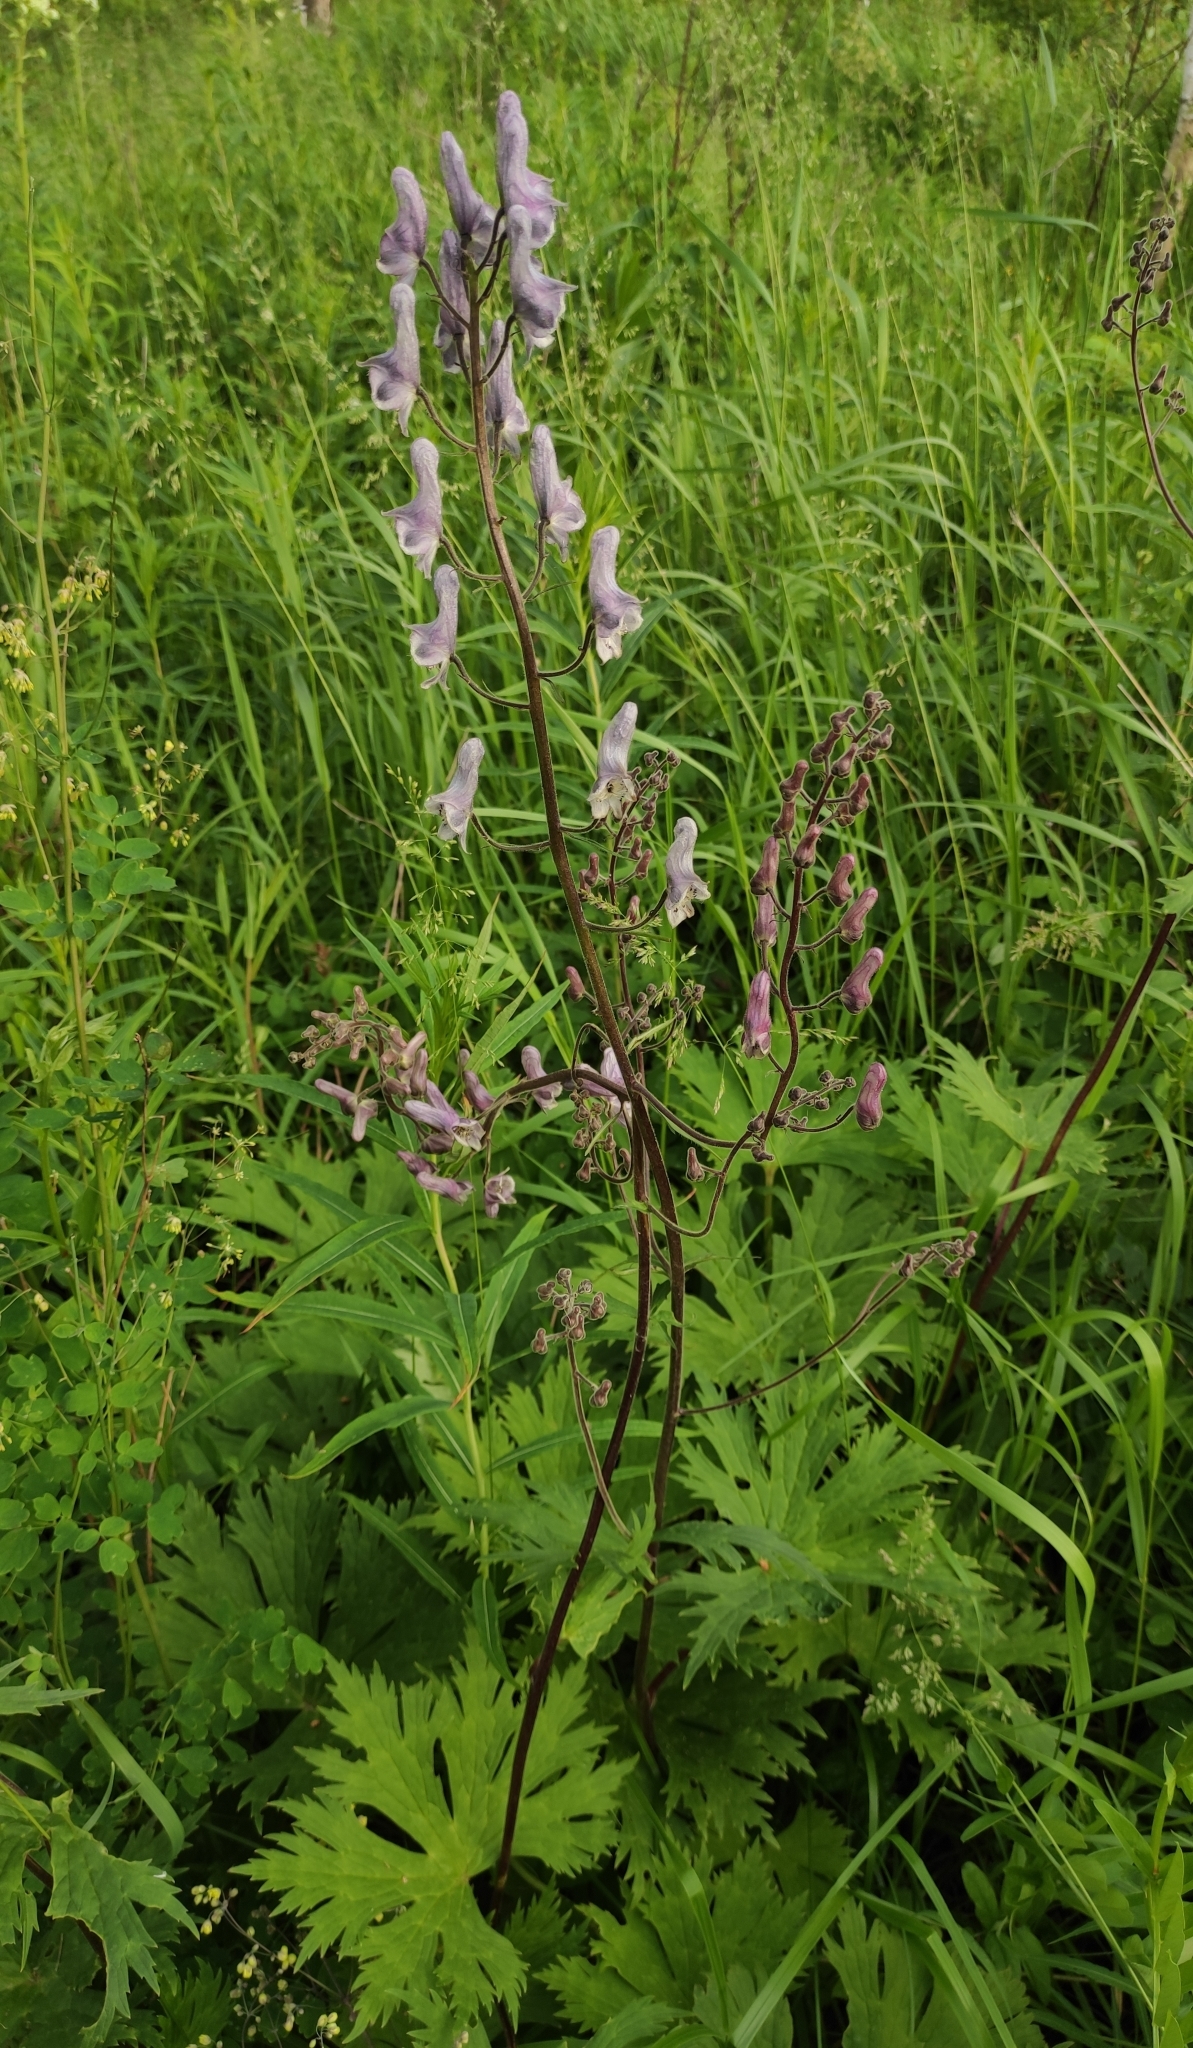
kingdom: Plantae
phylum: Tracheophyta
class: Magnoliopsida
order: Ranunculales
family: Ranunculaceae
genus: Aconitum
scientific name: Aconitum septentrionale
